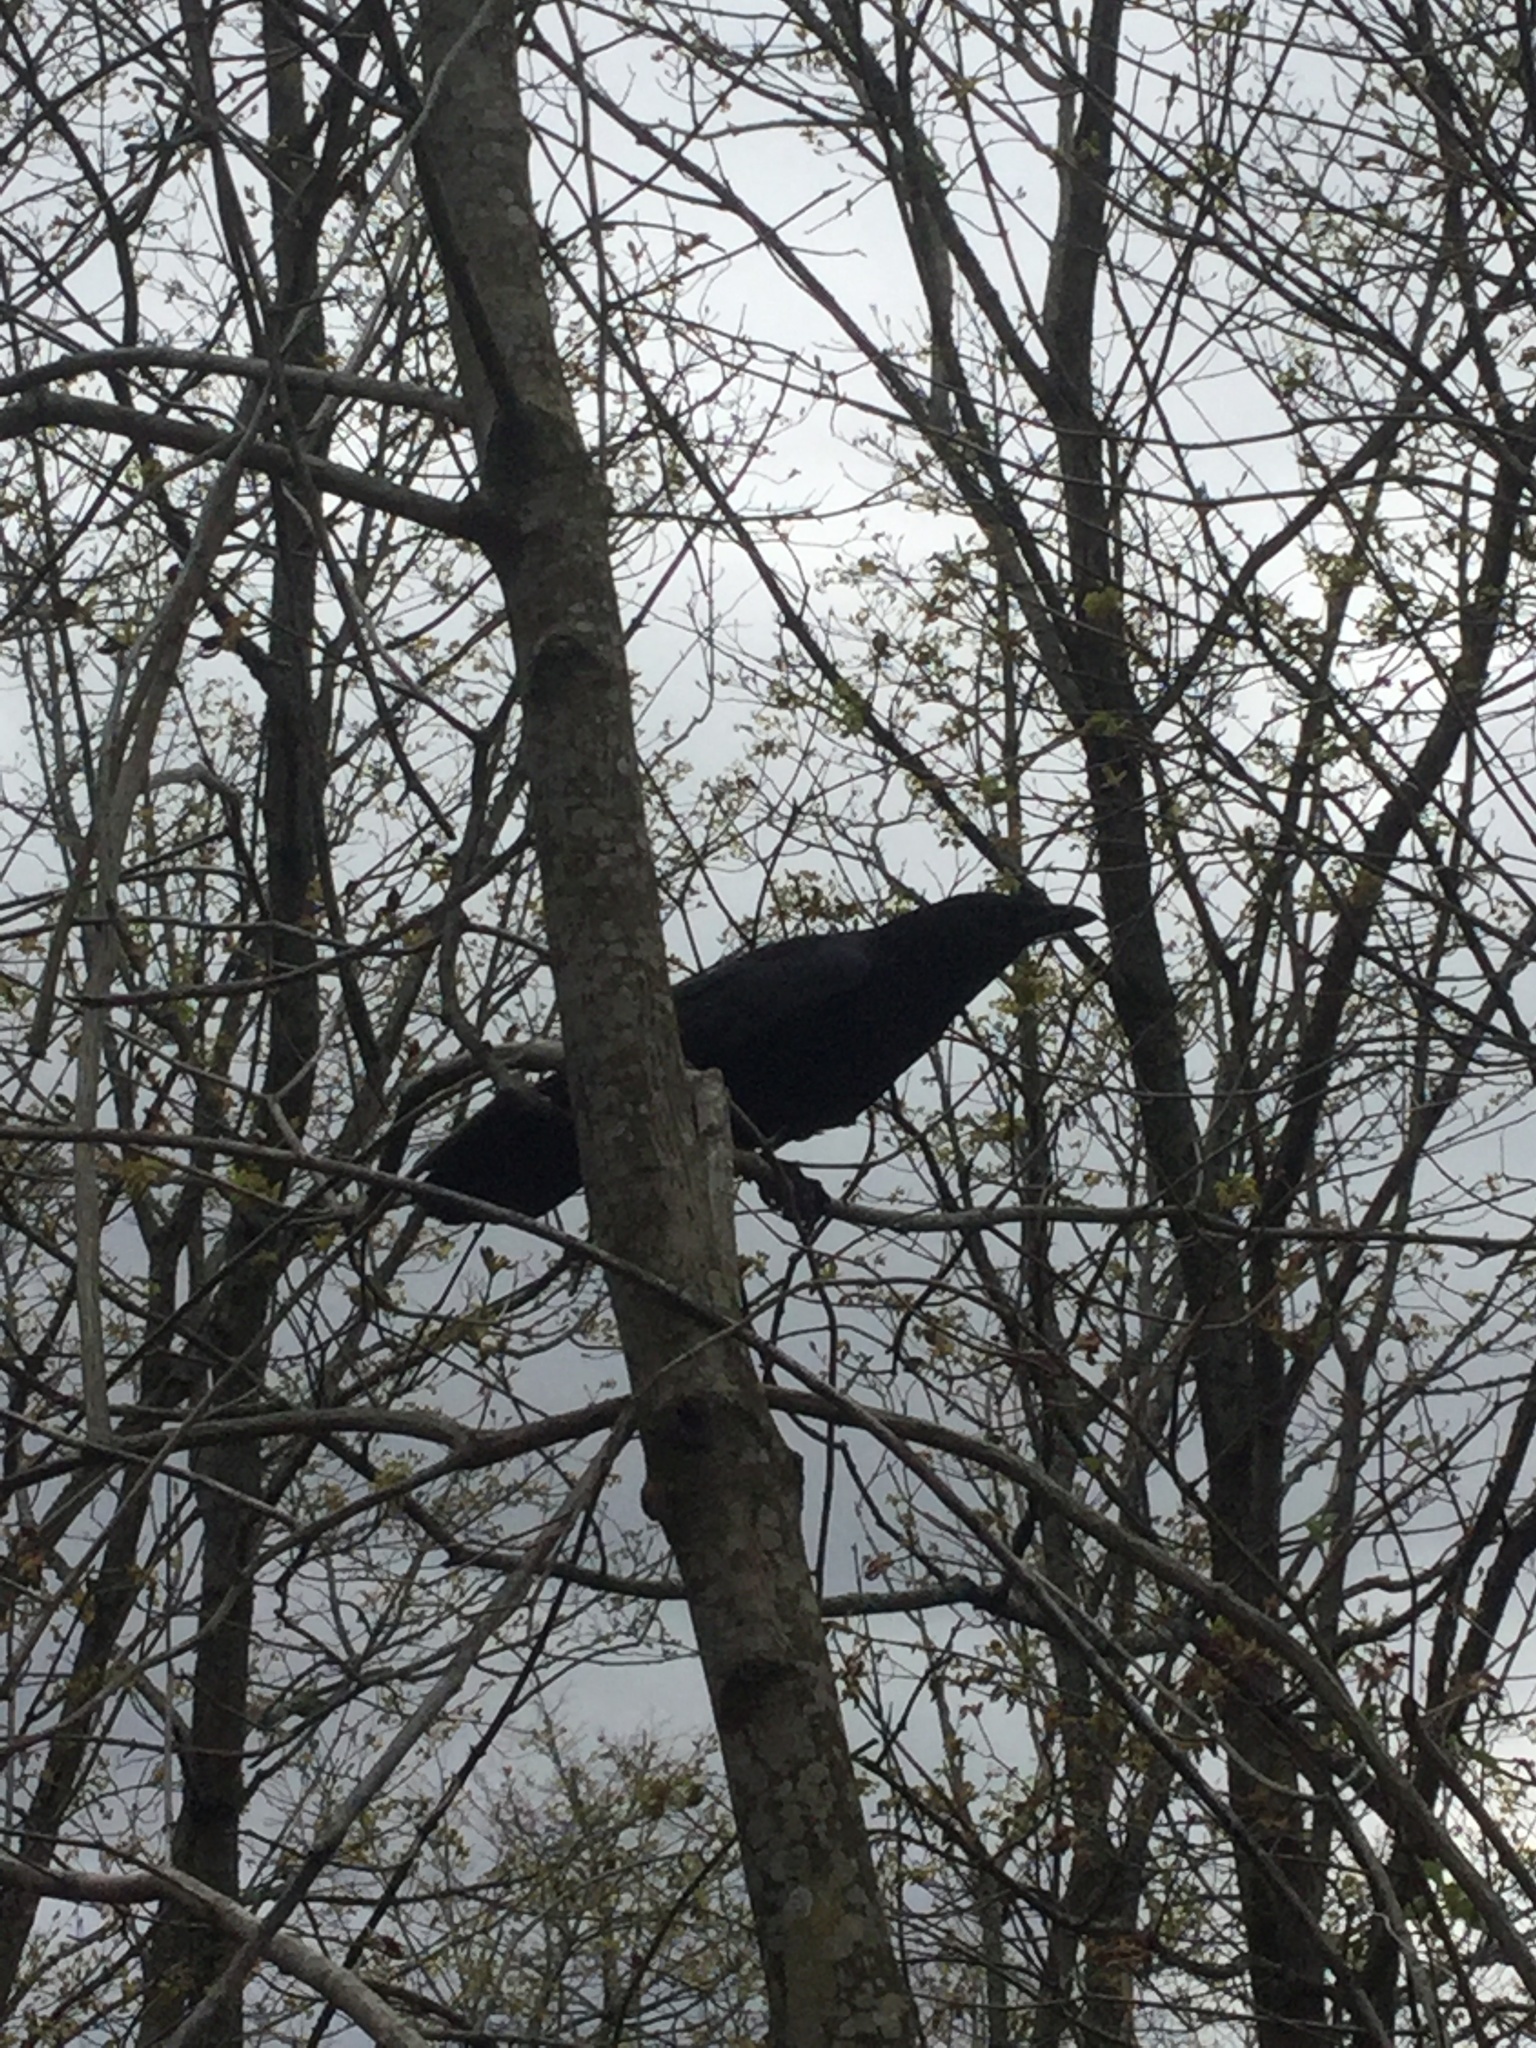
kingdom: Animalia
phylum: Chordata
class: Aves
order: Passeriformes
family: Corvidae
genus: Corvus
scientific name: Corvus brachyrhynchos
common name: American crow
